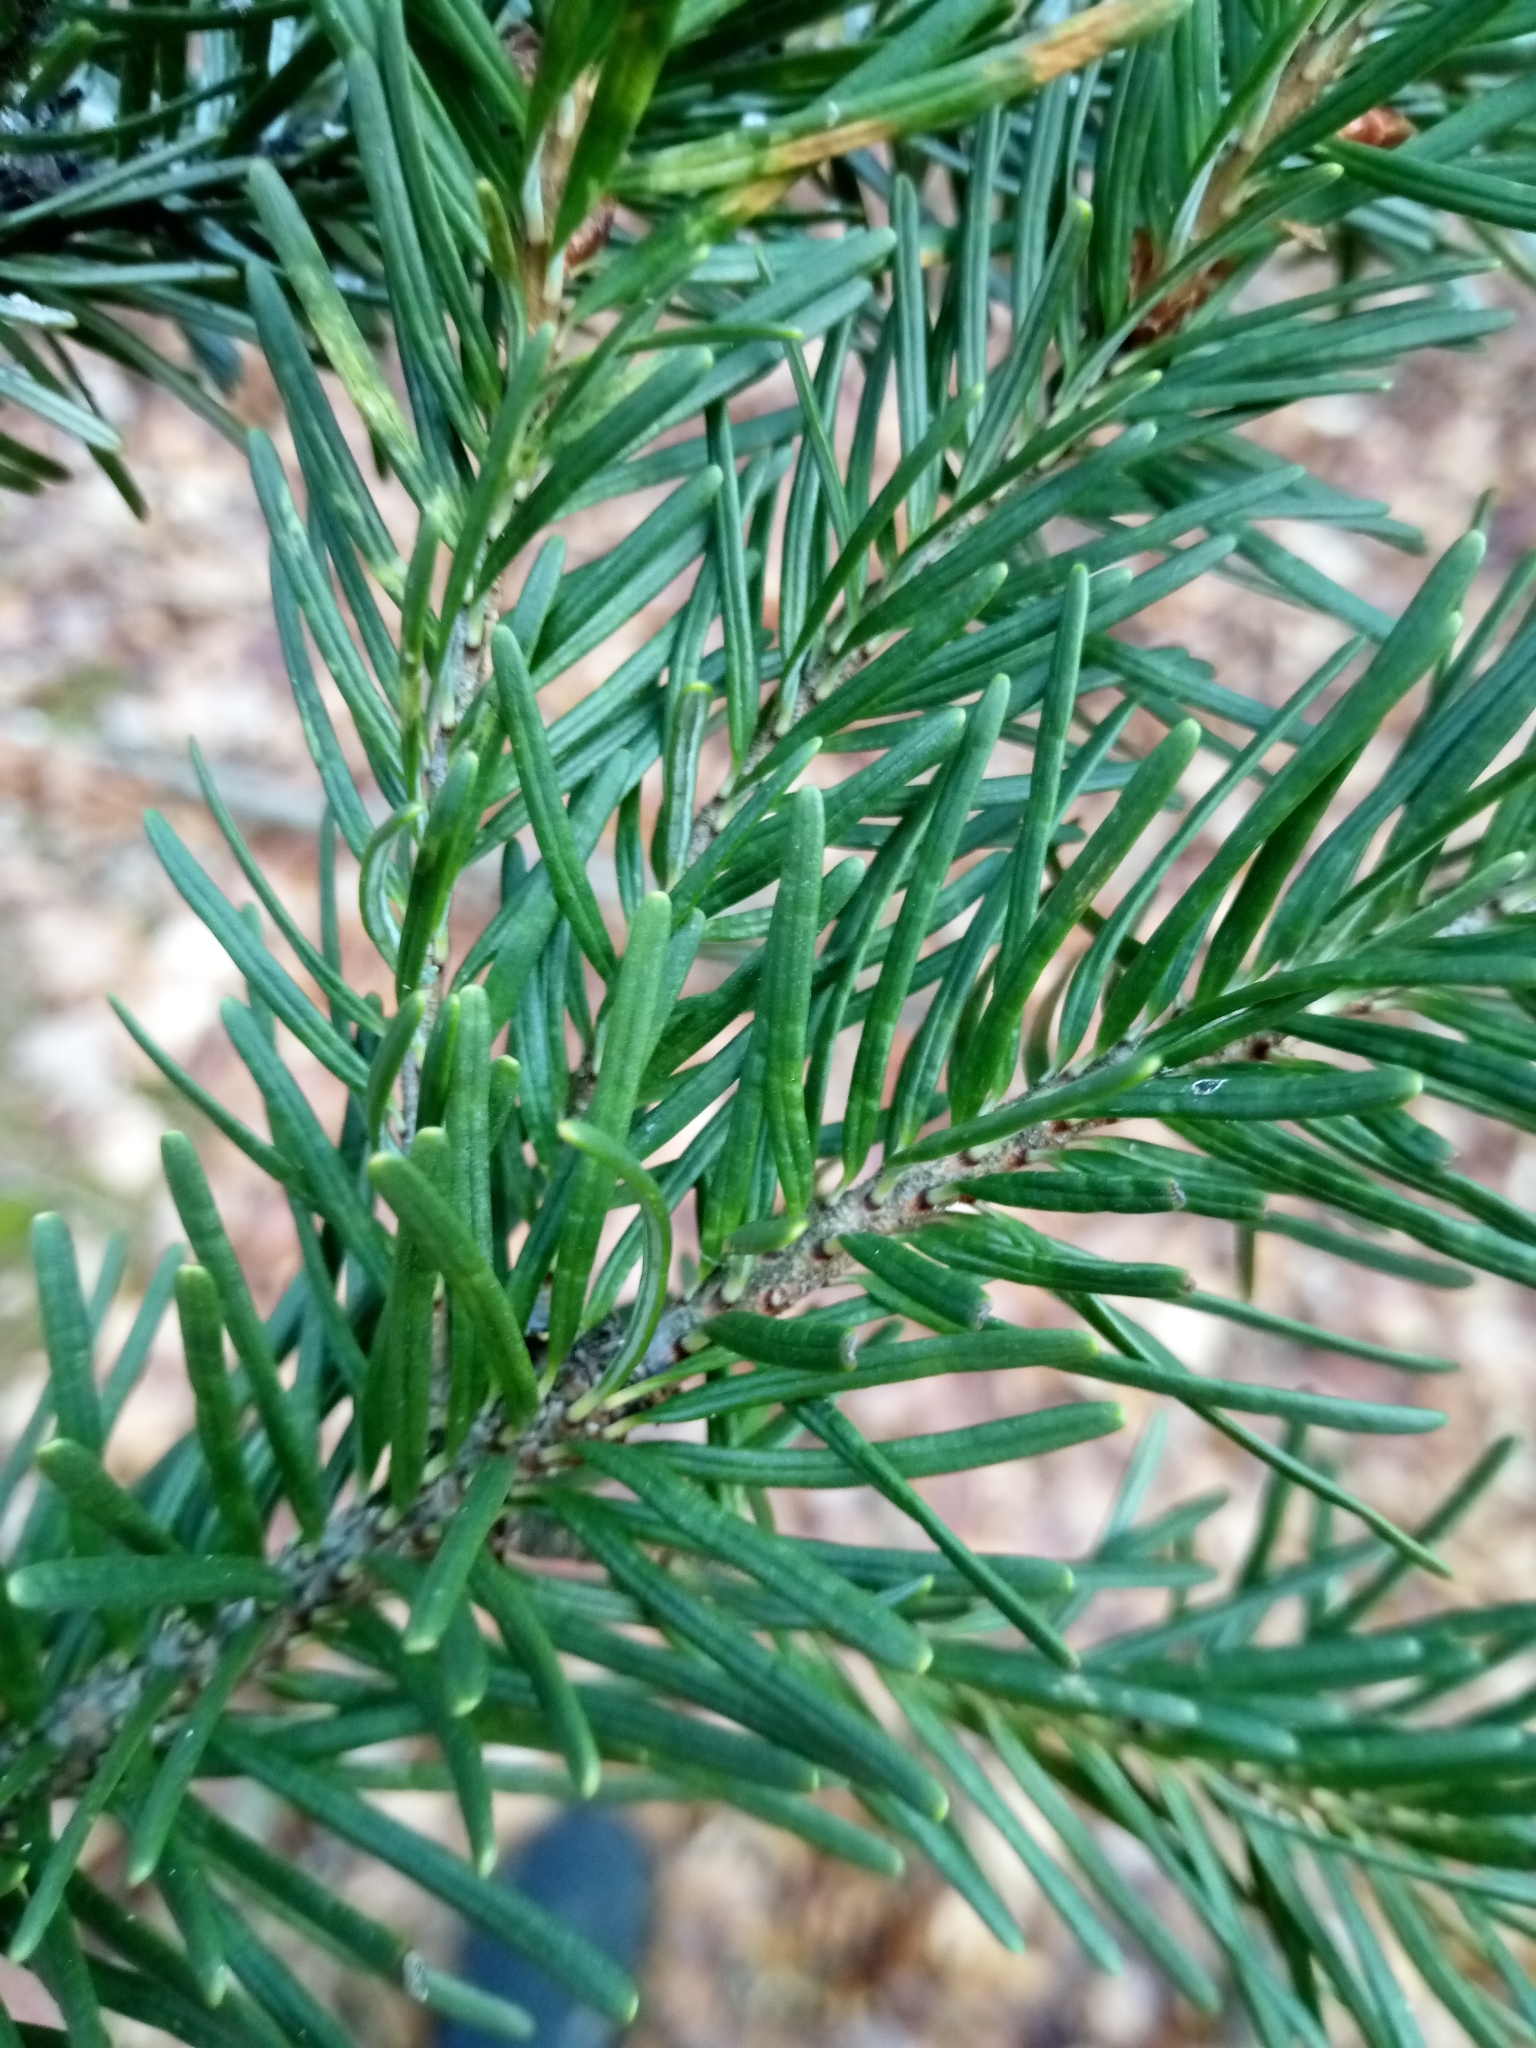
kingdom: Plantae
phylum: Tracheophyta
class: Pinopsida
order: Pinales
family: Pinaceae
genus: Pseudotsuga
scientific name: Pseudotsuga menziesii
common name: Douglas fir
